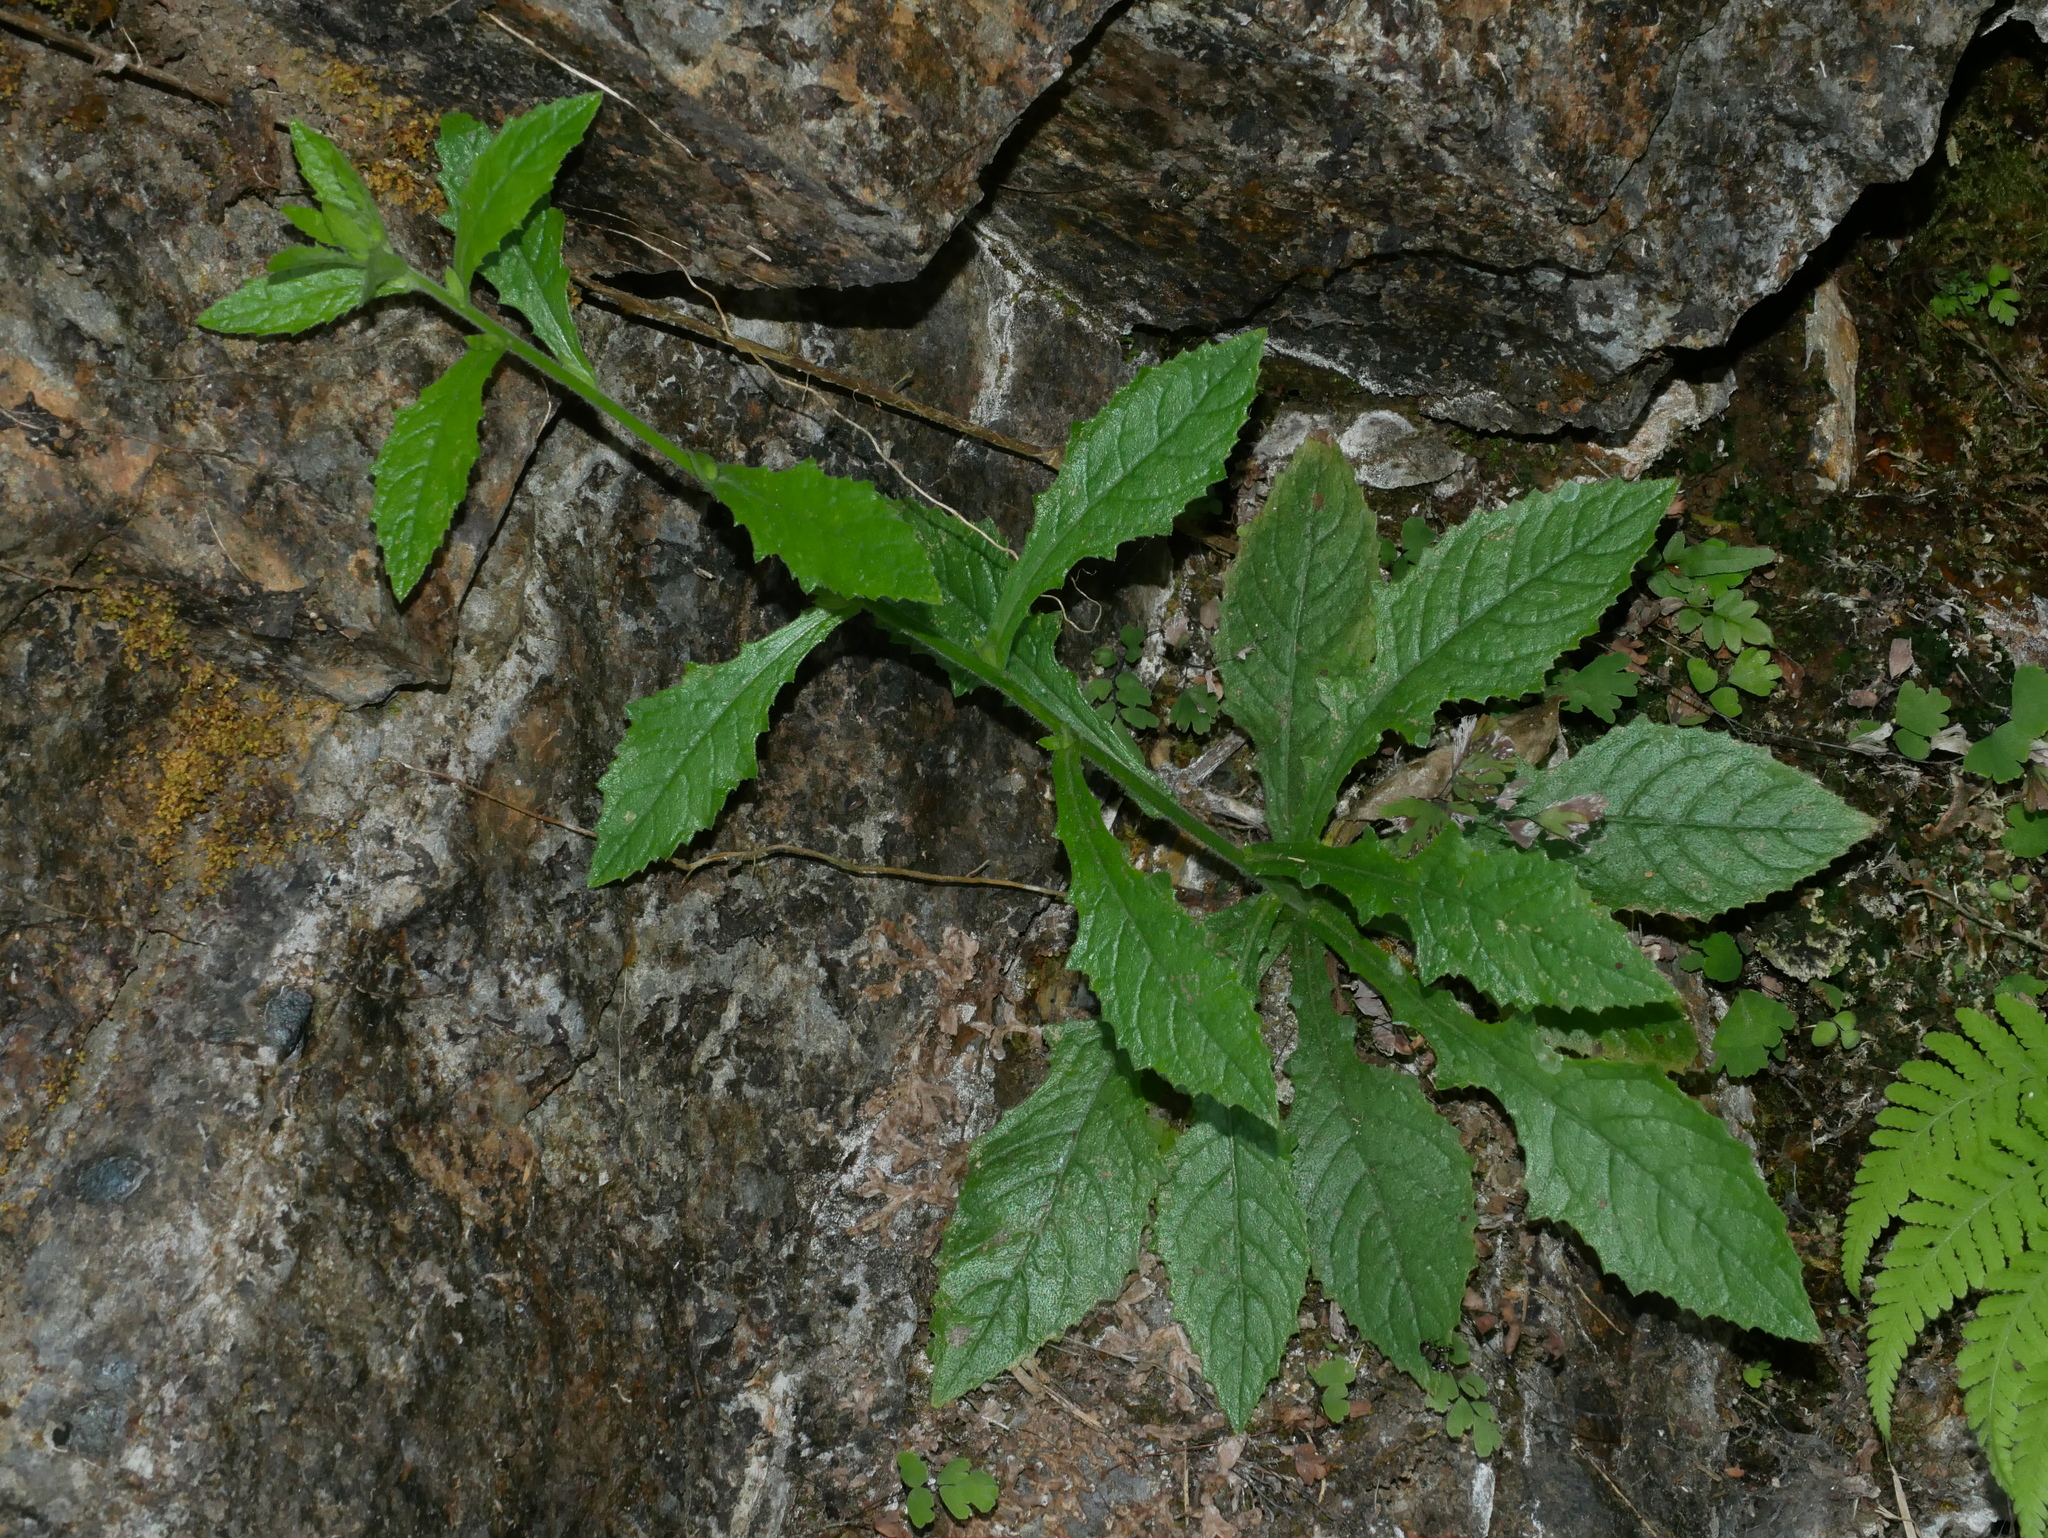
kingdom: Plantae
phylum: Tracheophyta
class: Magnoliopsida
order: Asterales
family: Asteraceae
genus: Blumea
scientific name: Blumea sinuata
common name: Cutleaf false oxtongue
